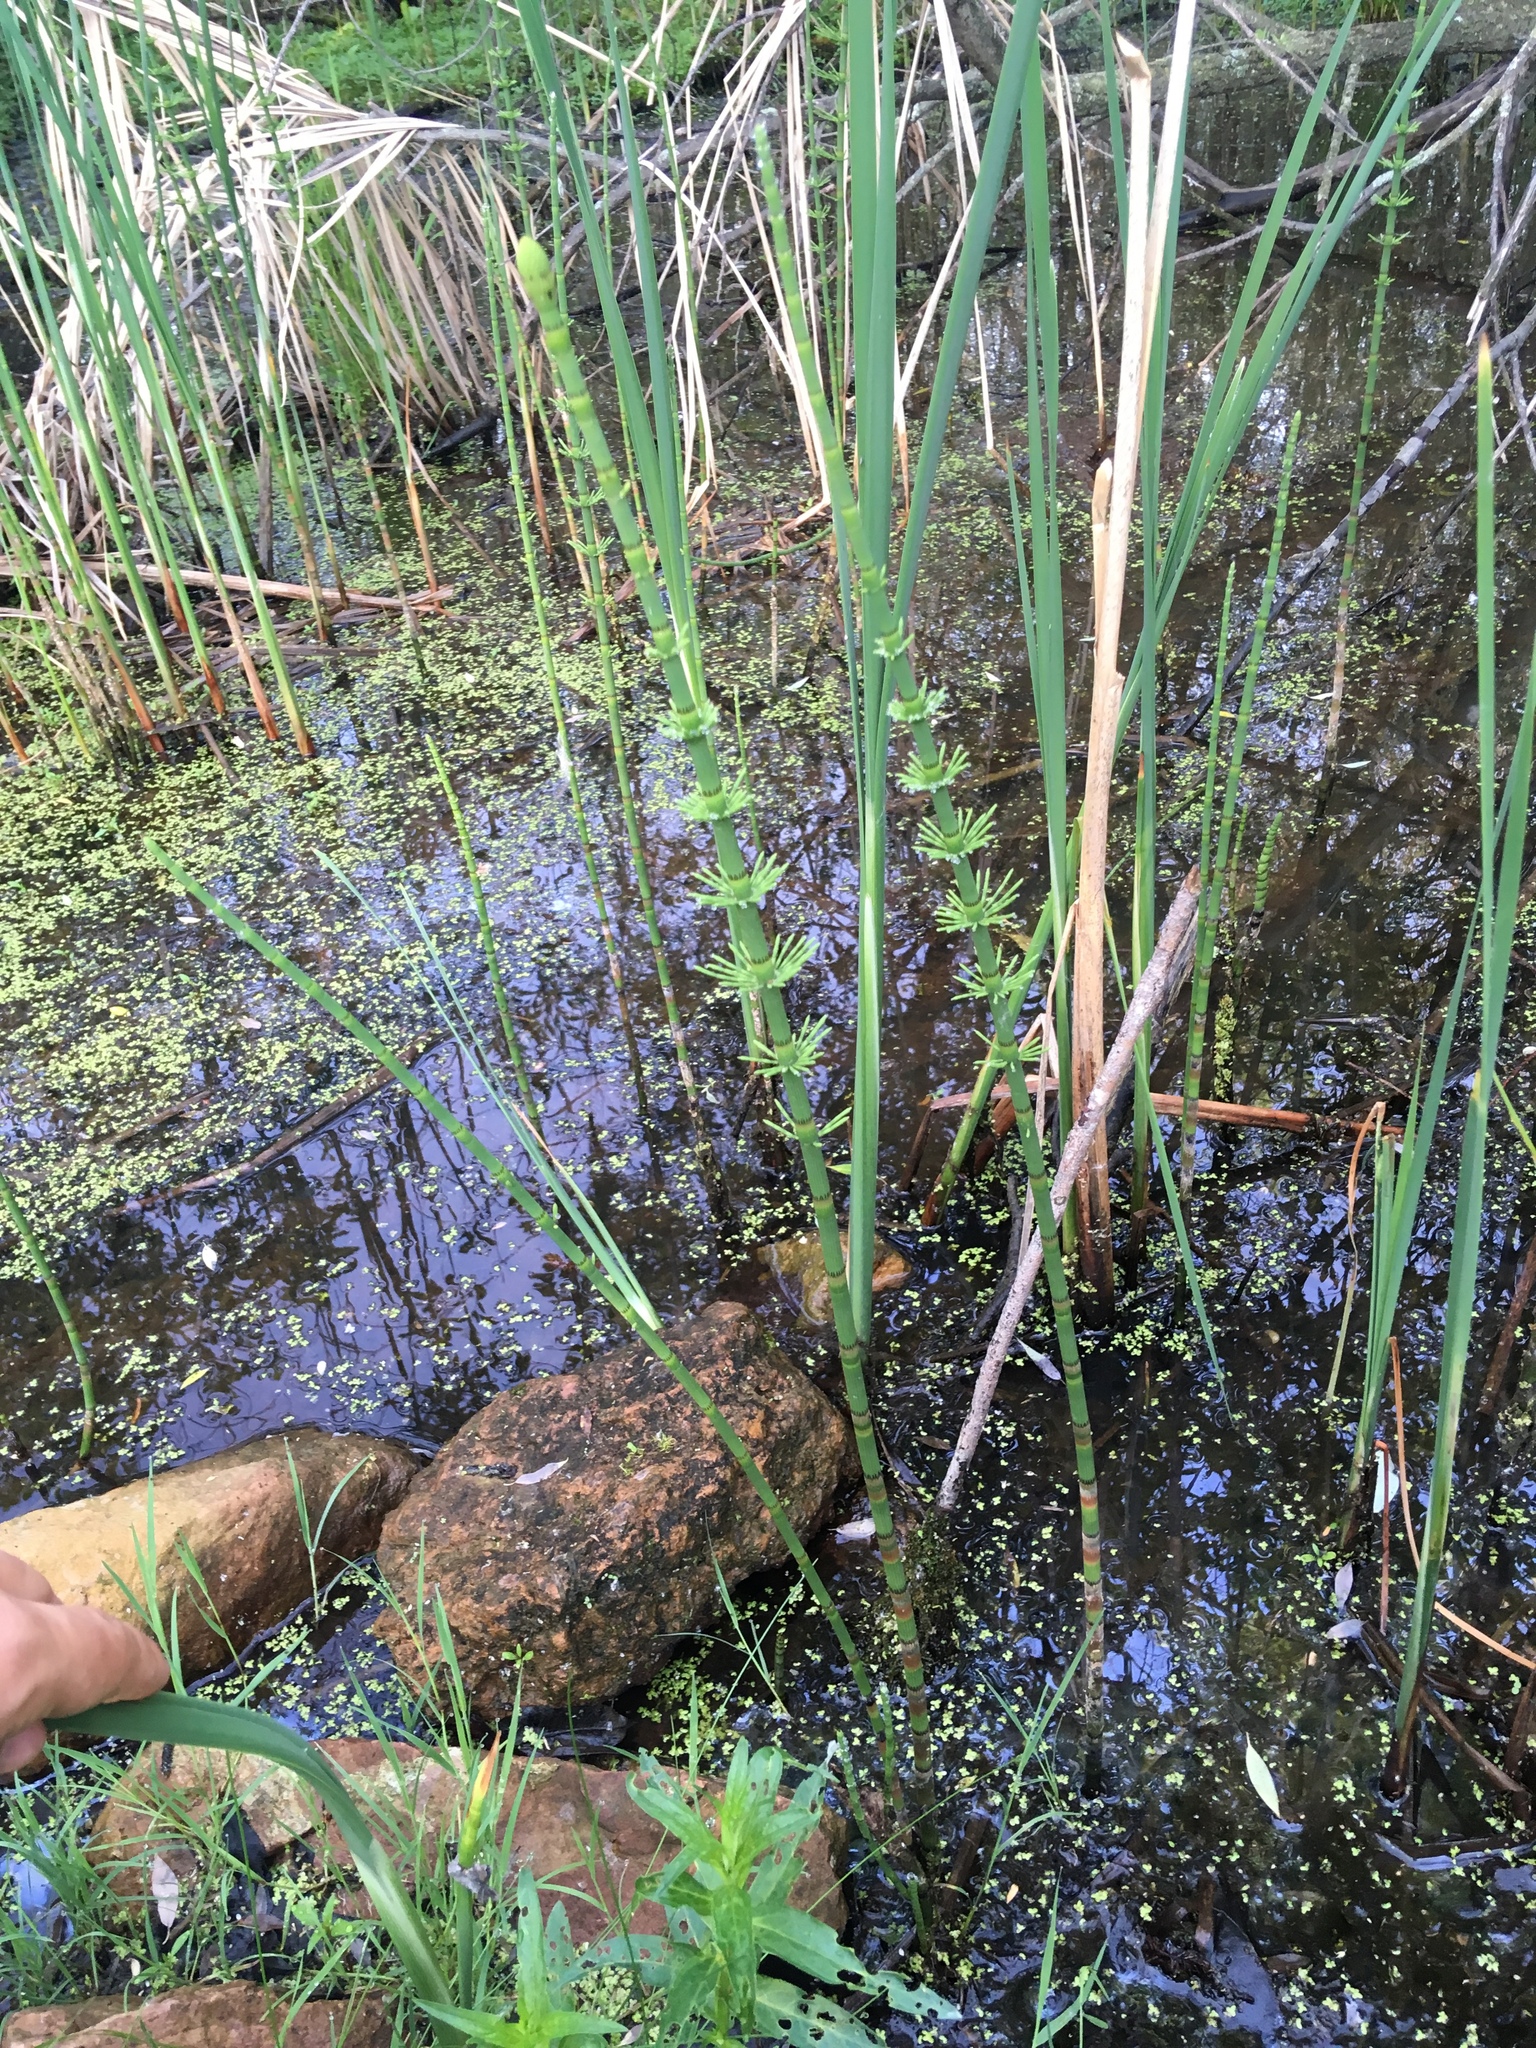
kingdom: Plantae
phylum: Tracheophyta
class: Polypodiopsida
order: Equisetales
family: Equisetaceae
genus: Equisetum
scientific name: Equisetum fluviatile
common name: Water horsetail
